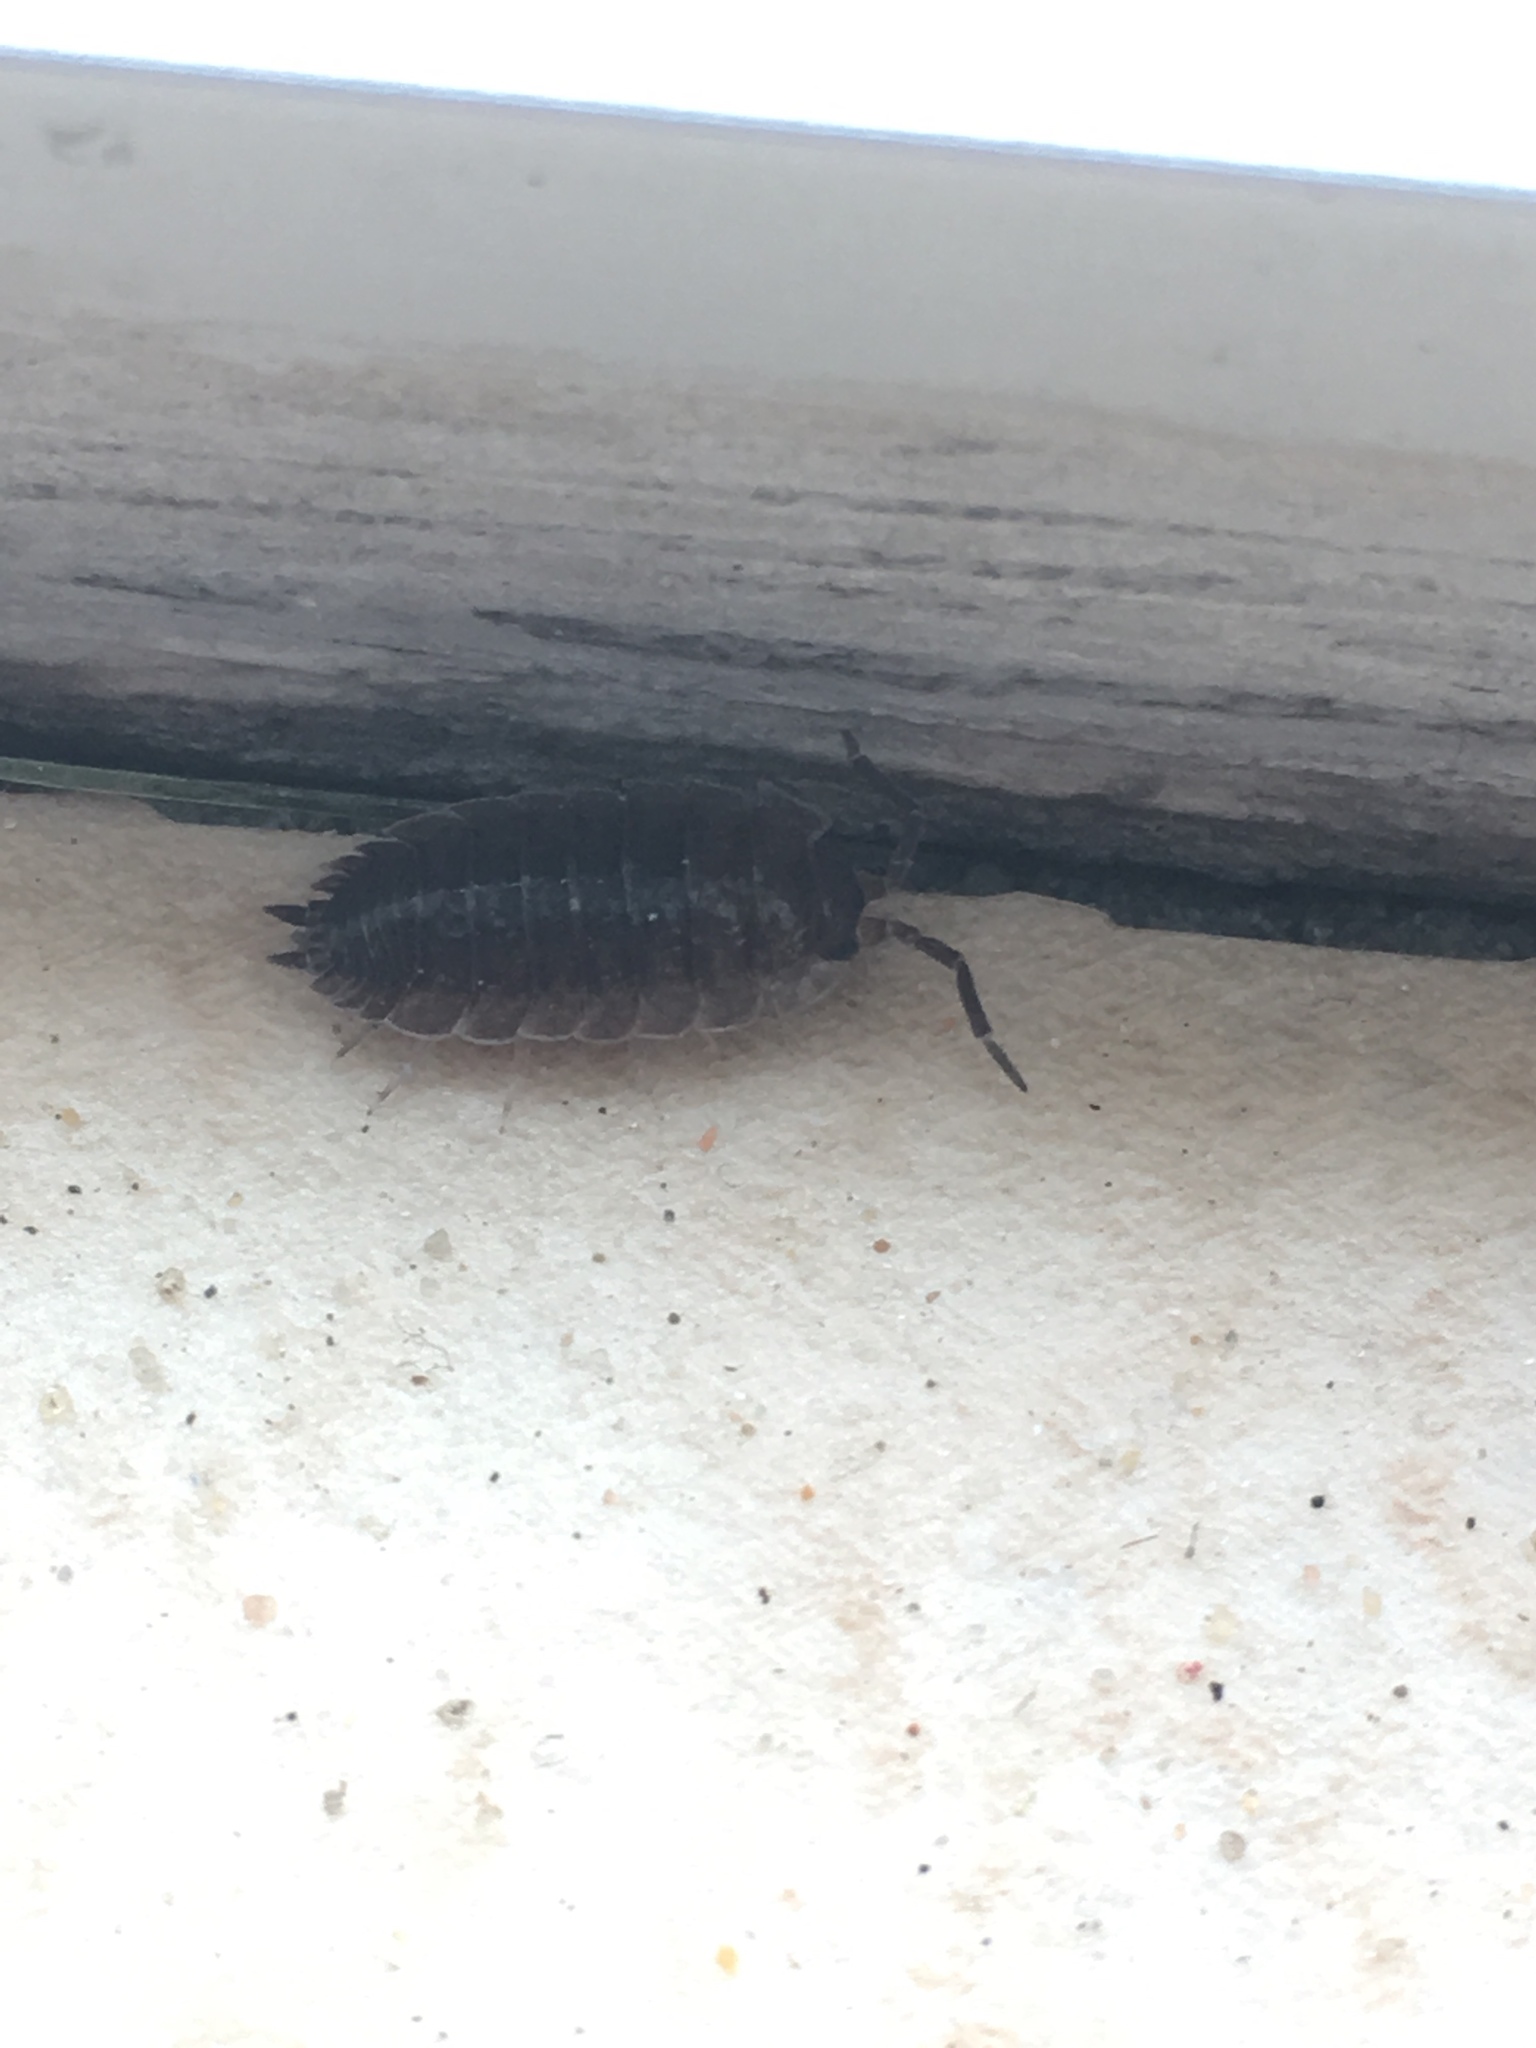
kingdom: Animalia
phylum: Arthropoda
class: Malacostraca
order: Isopoda
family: Porcellionidae
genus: Porcellio
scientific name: Porcellio scaber
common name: Common rough woodlouse
